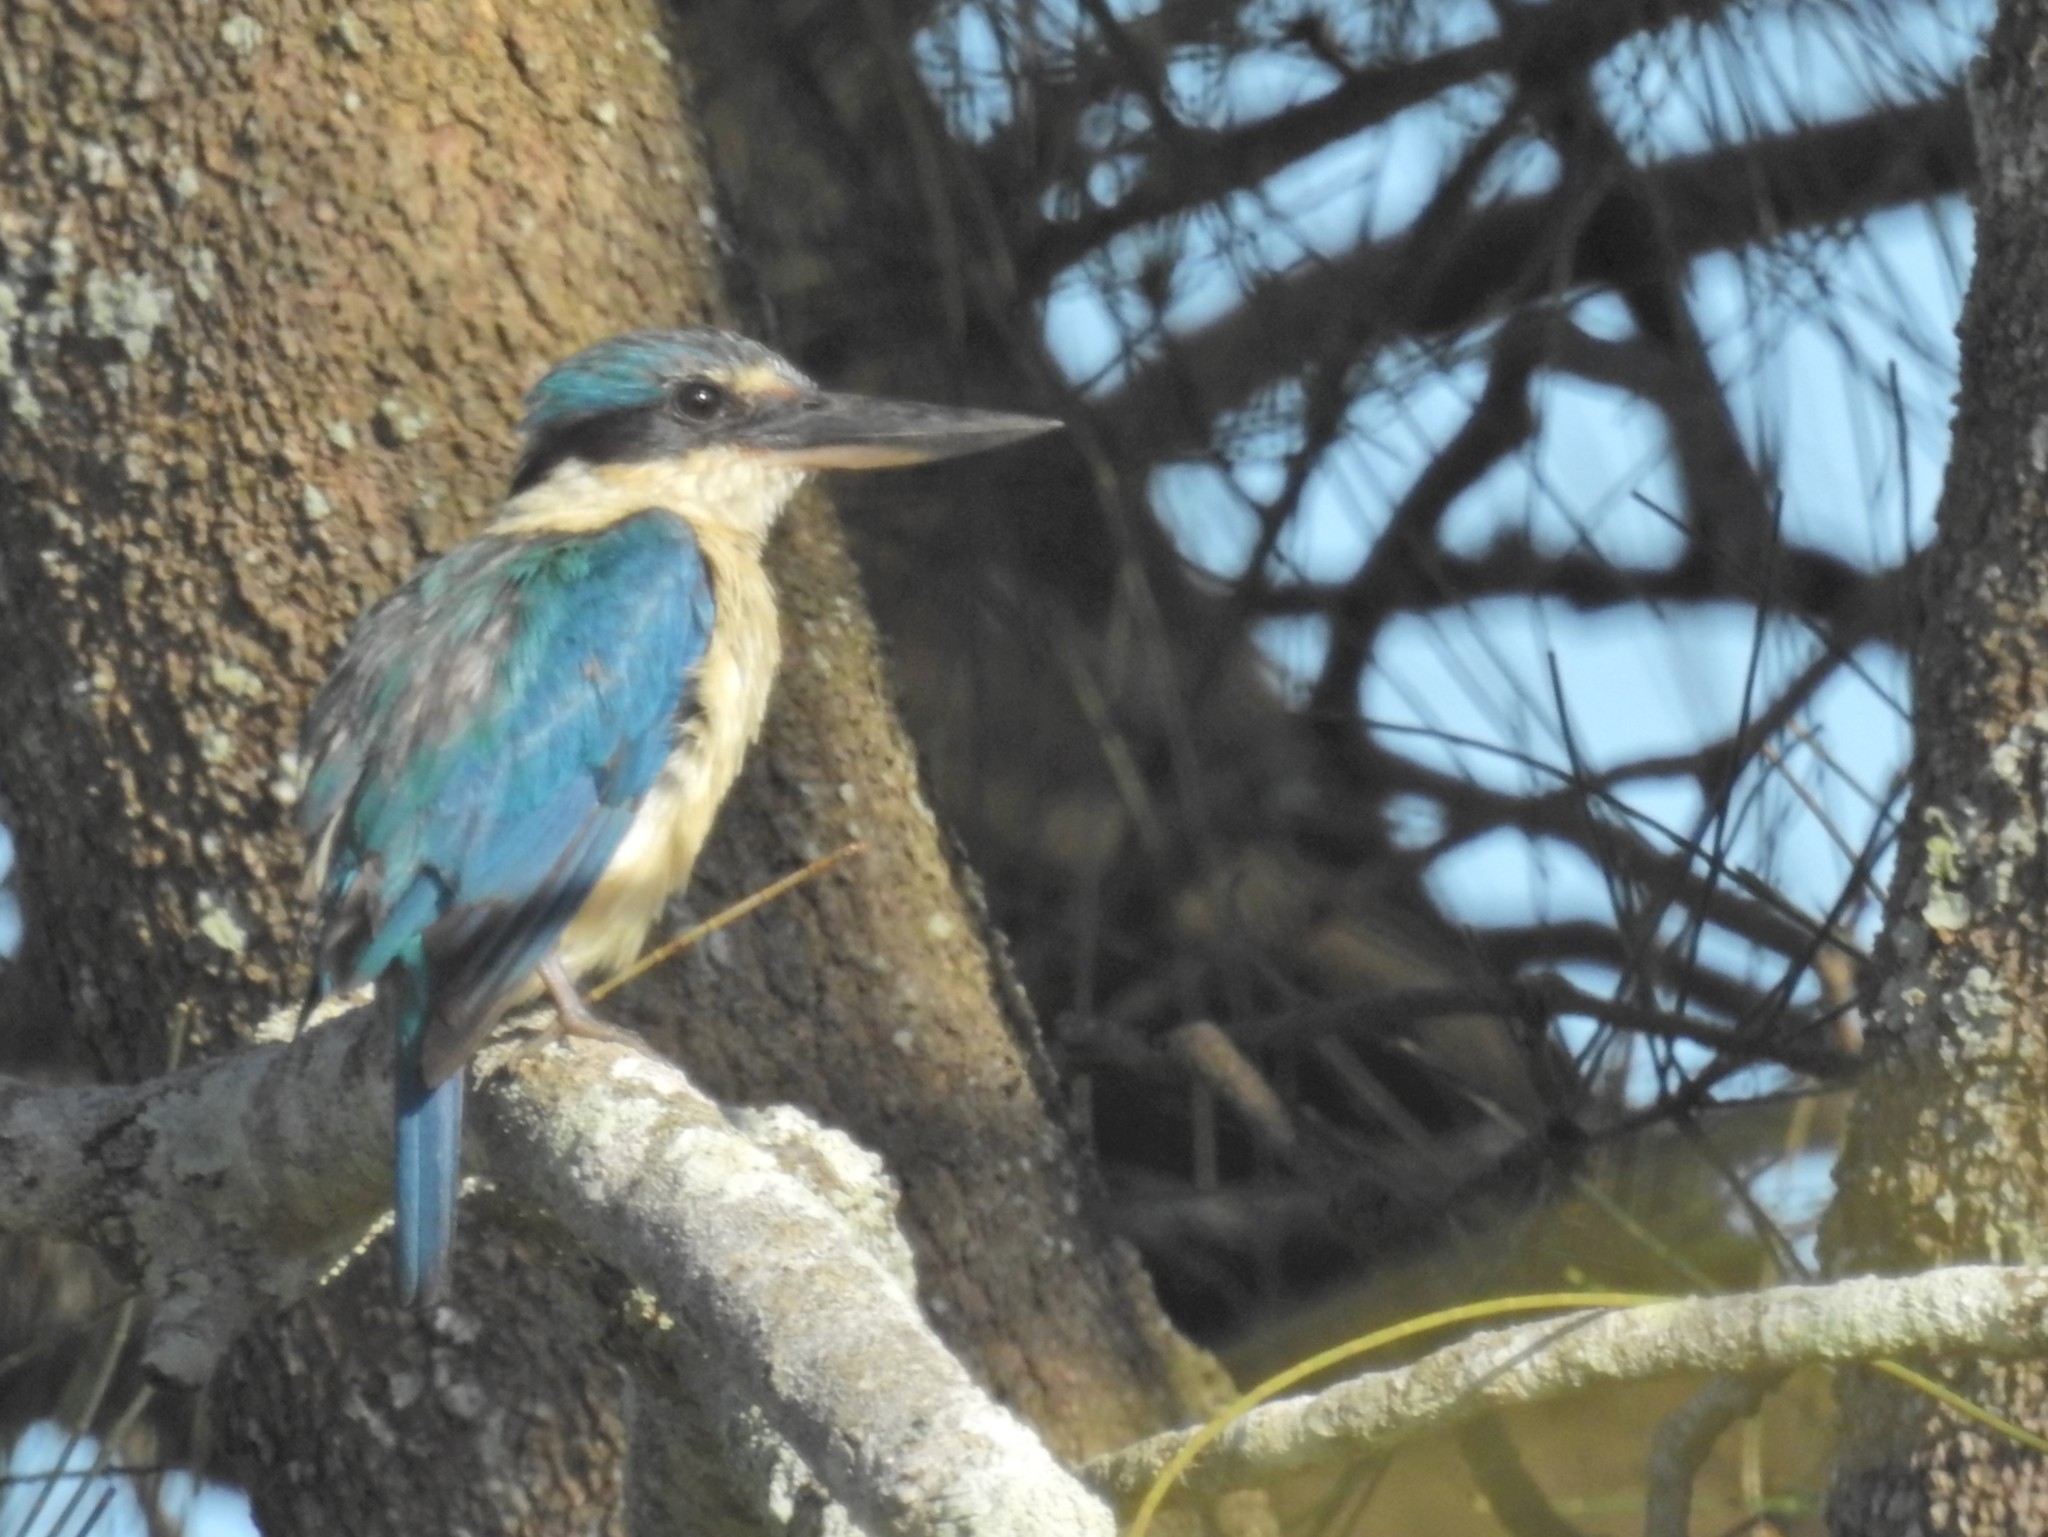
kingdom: Animalia
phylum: Chordata
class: Aves
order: Coraciiformes
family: Alcedinidae
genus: Todiramphus
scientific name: Todiramphus sanctus
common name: Sacred kingfisher
